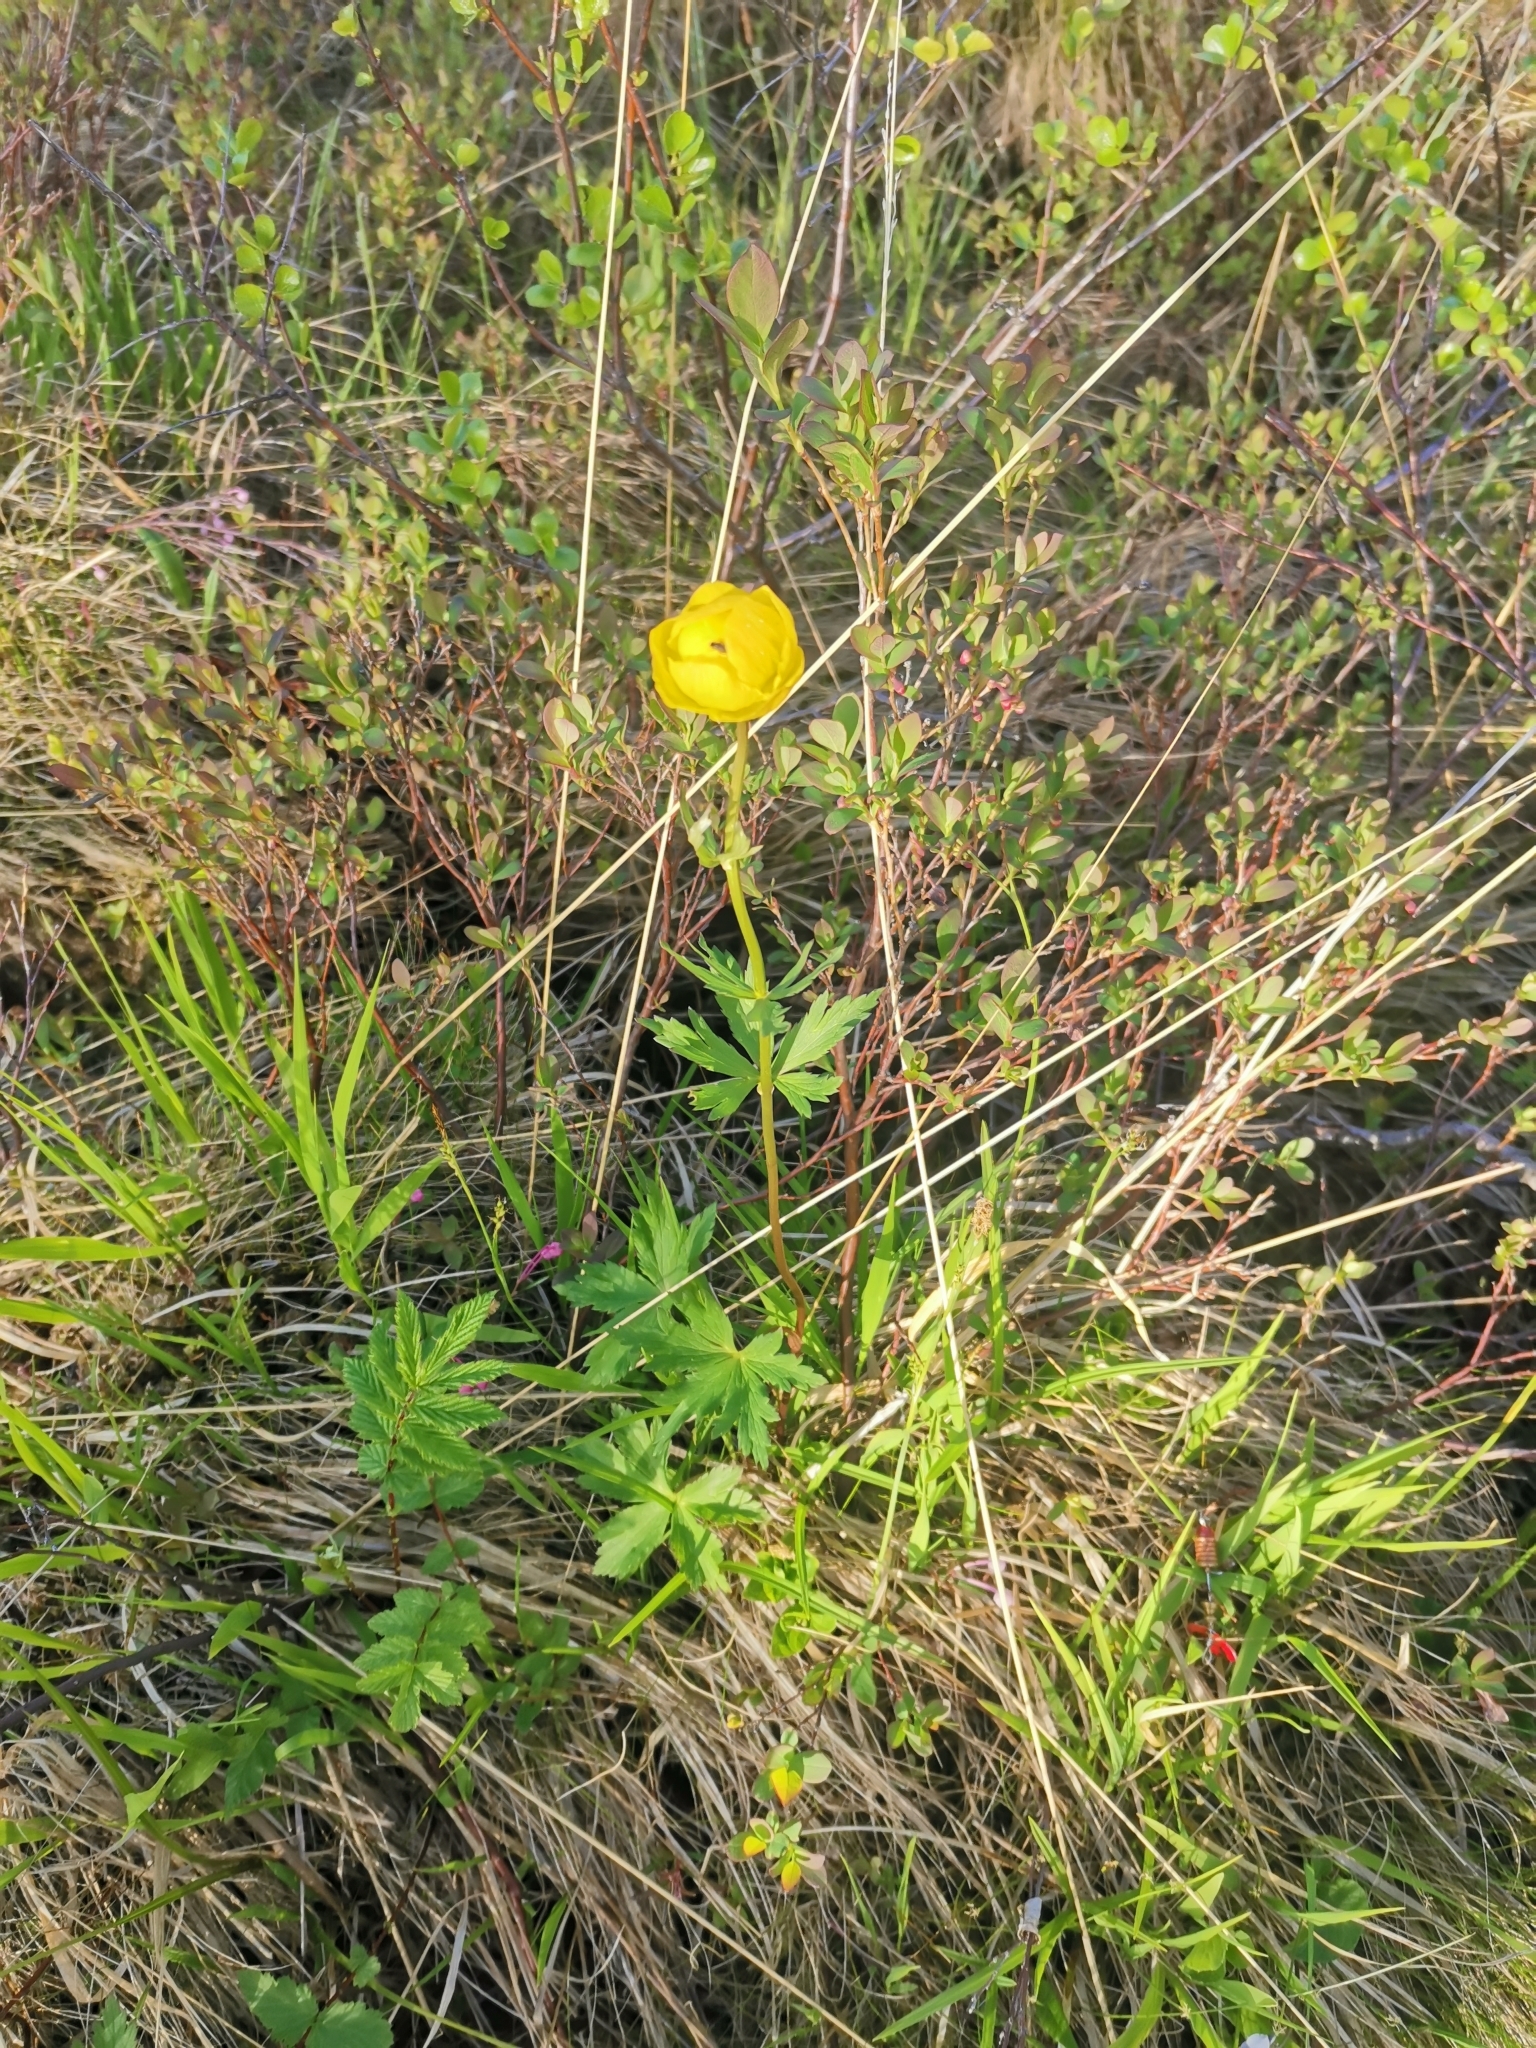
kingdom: Plantae
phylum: Tracheophyta
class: Magnoliopsida
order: Ranunculales
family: Ranunculaceae
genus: Trollius
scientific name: Trollius europaeus
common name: European globeflower
